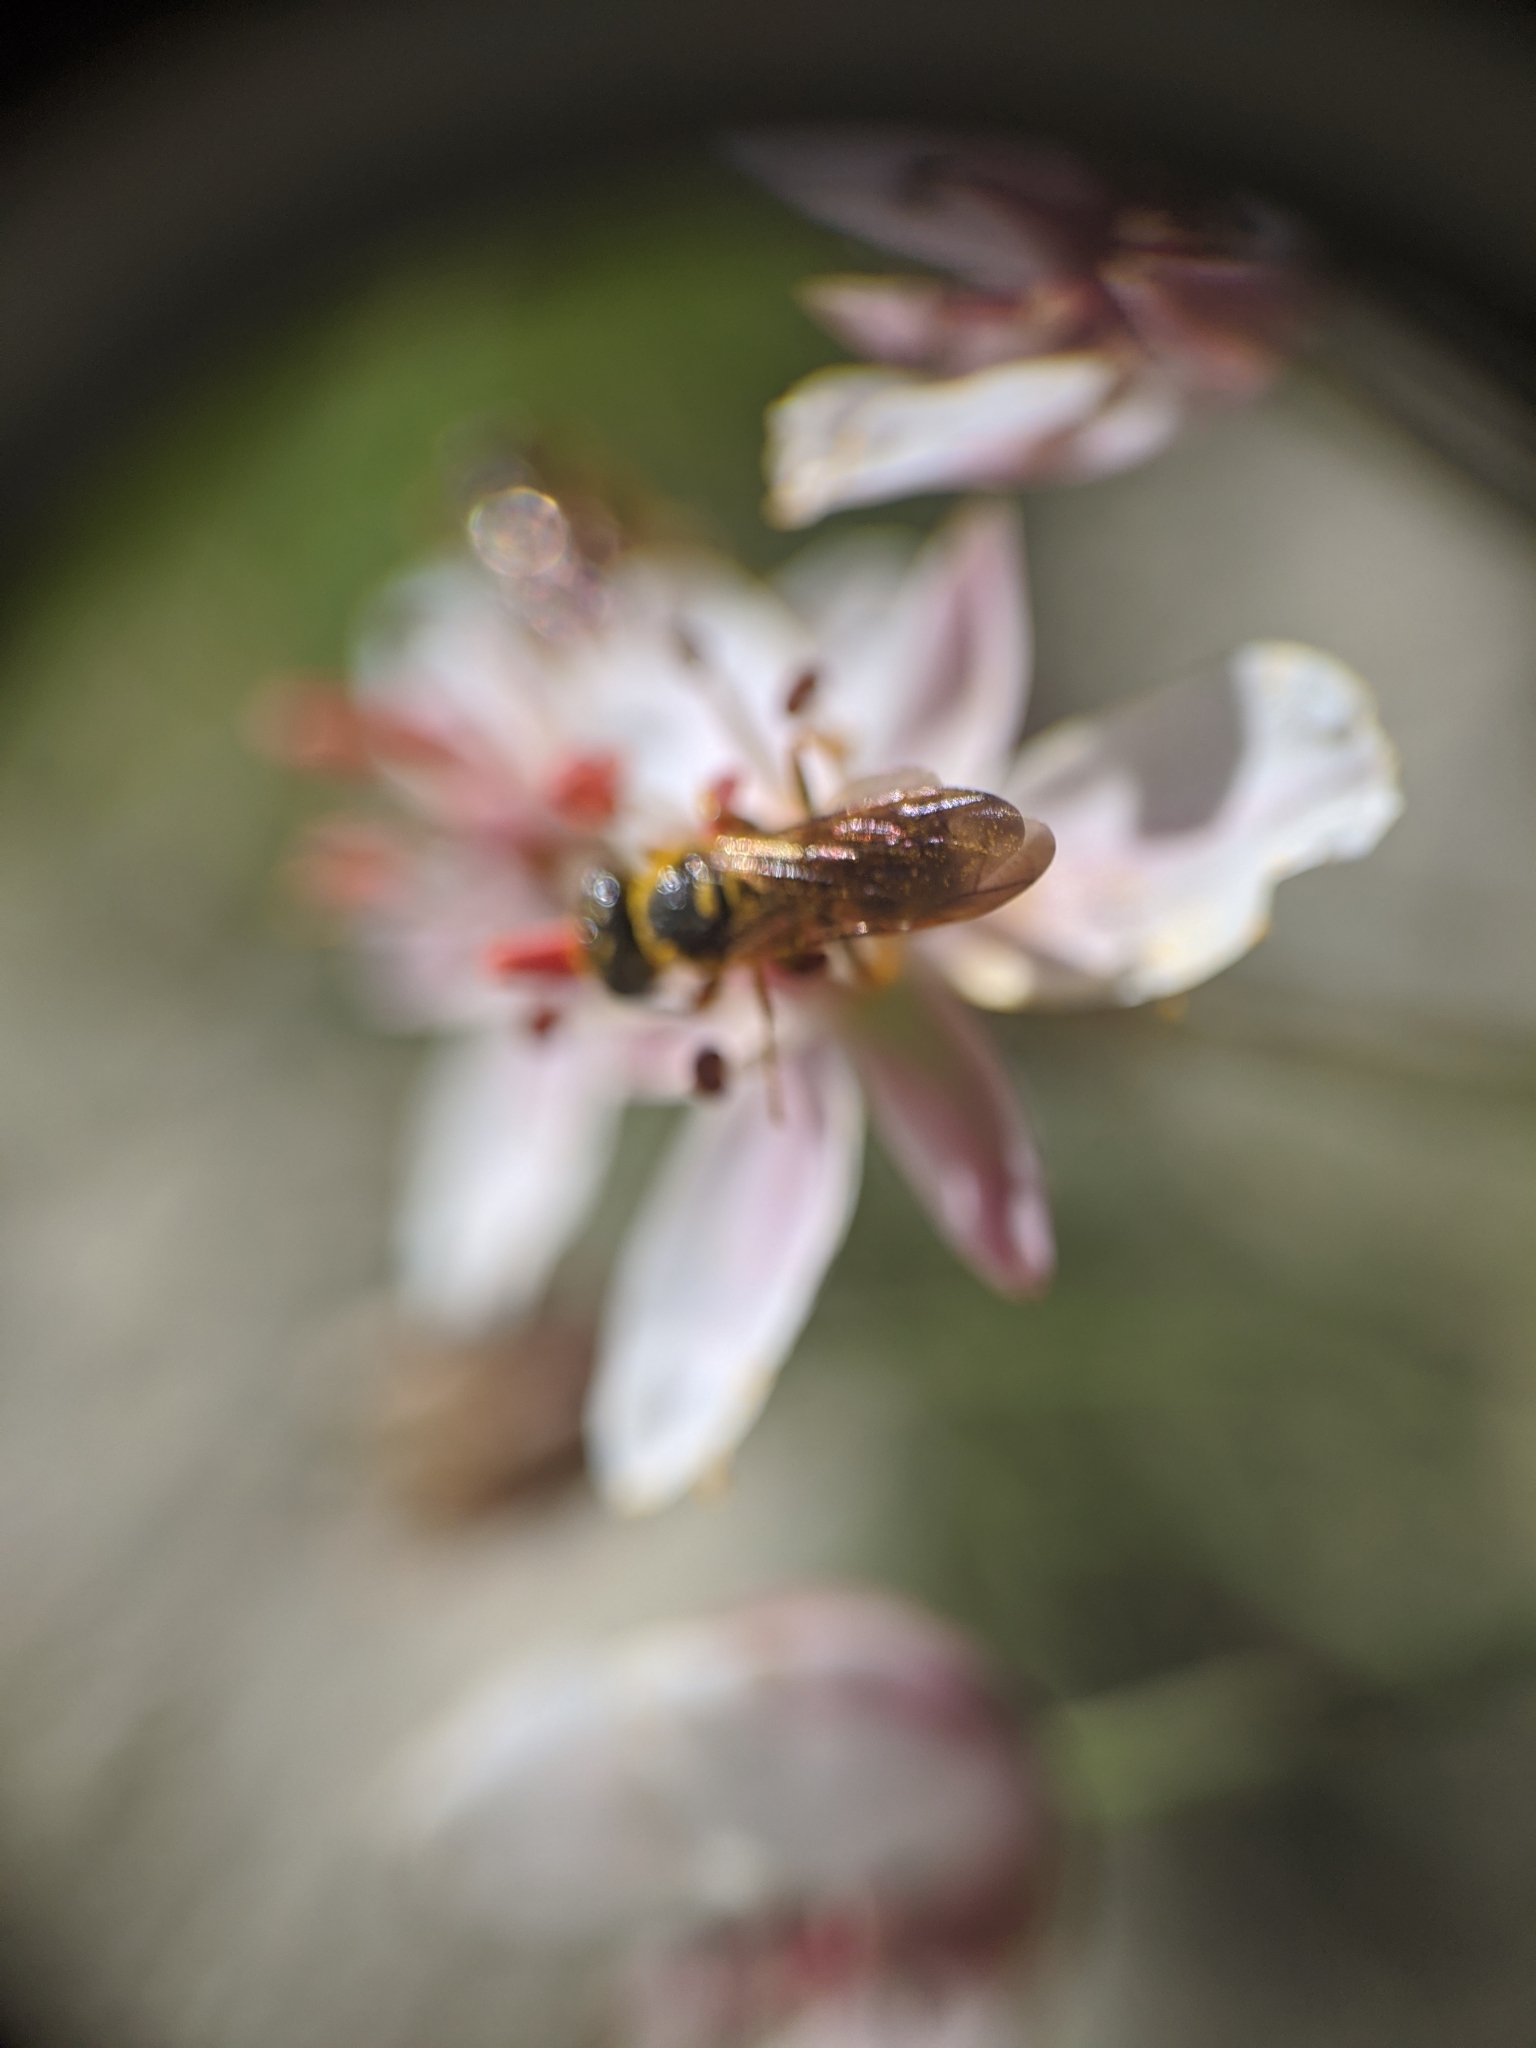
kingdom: Animalia
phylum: Arthropoda
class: Insecta
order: Hymenoptera
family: Crabronidae
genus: Philanthus
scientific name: Philanthus gibbosus
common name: Humped beewolf
